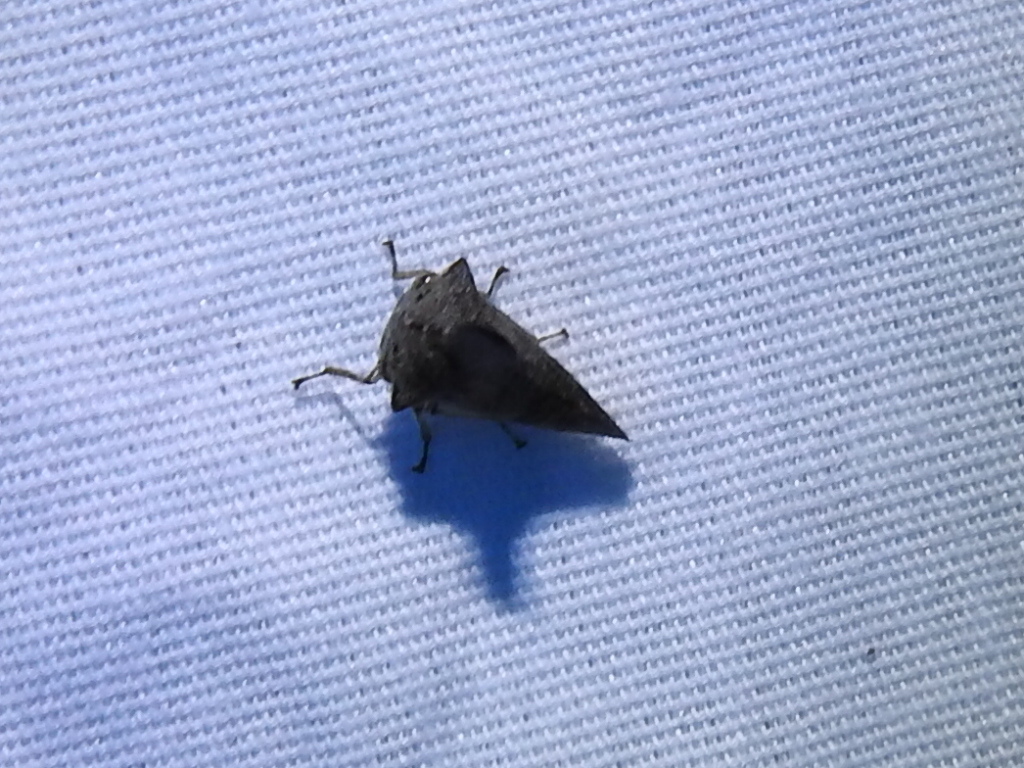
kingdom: Animalia
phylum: Arthropoda
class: Insecta
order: Hemiptera
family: Membracidae
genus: Glossonotus
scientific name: Glossonotus acuminata
